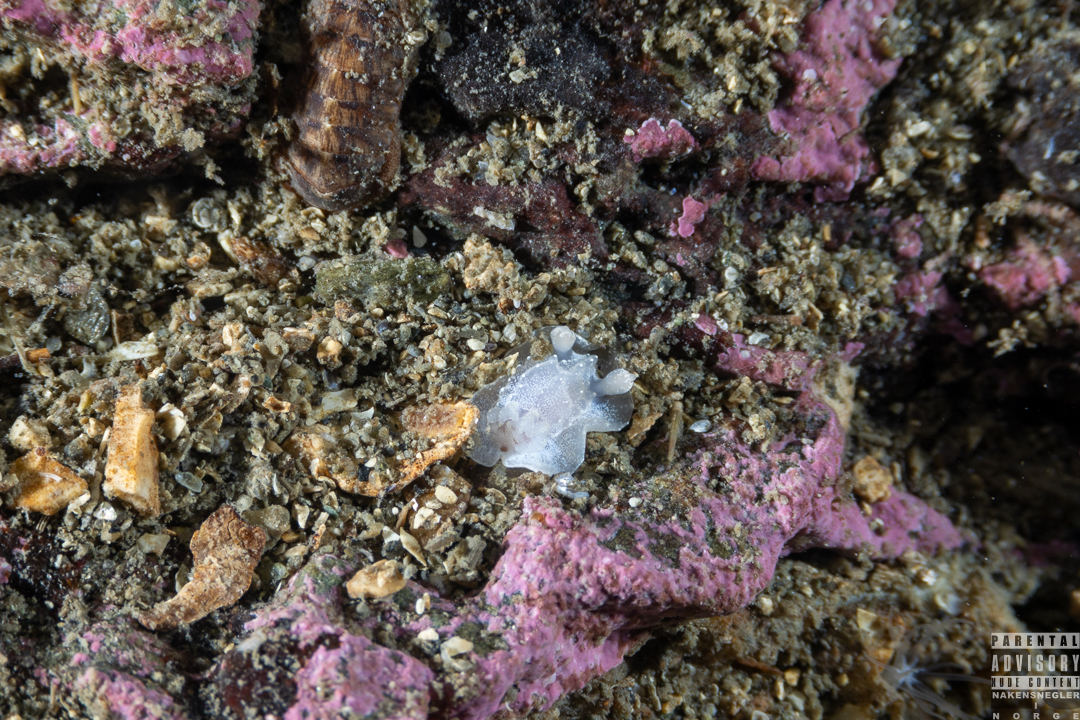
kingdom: Animalia
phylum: Mollusca
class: Gastropoda
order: Nudibranchia
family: Goniodorididae
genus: Okenia
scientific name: Okenia
